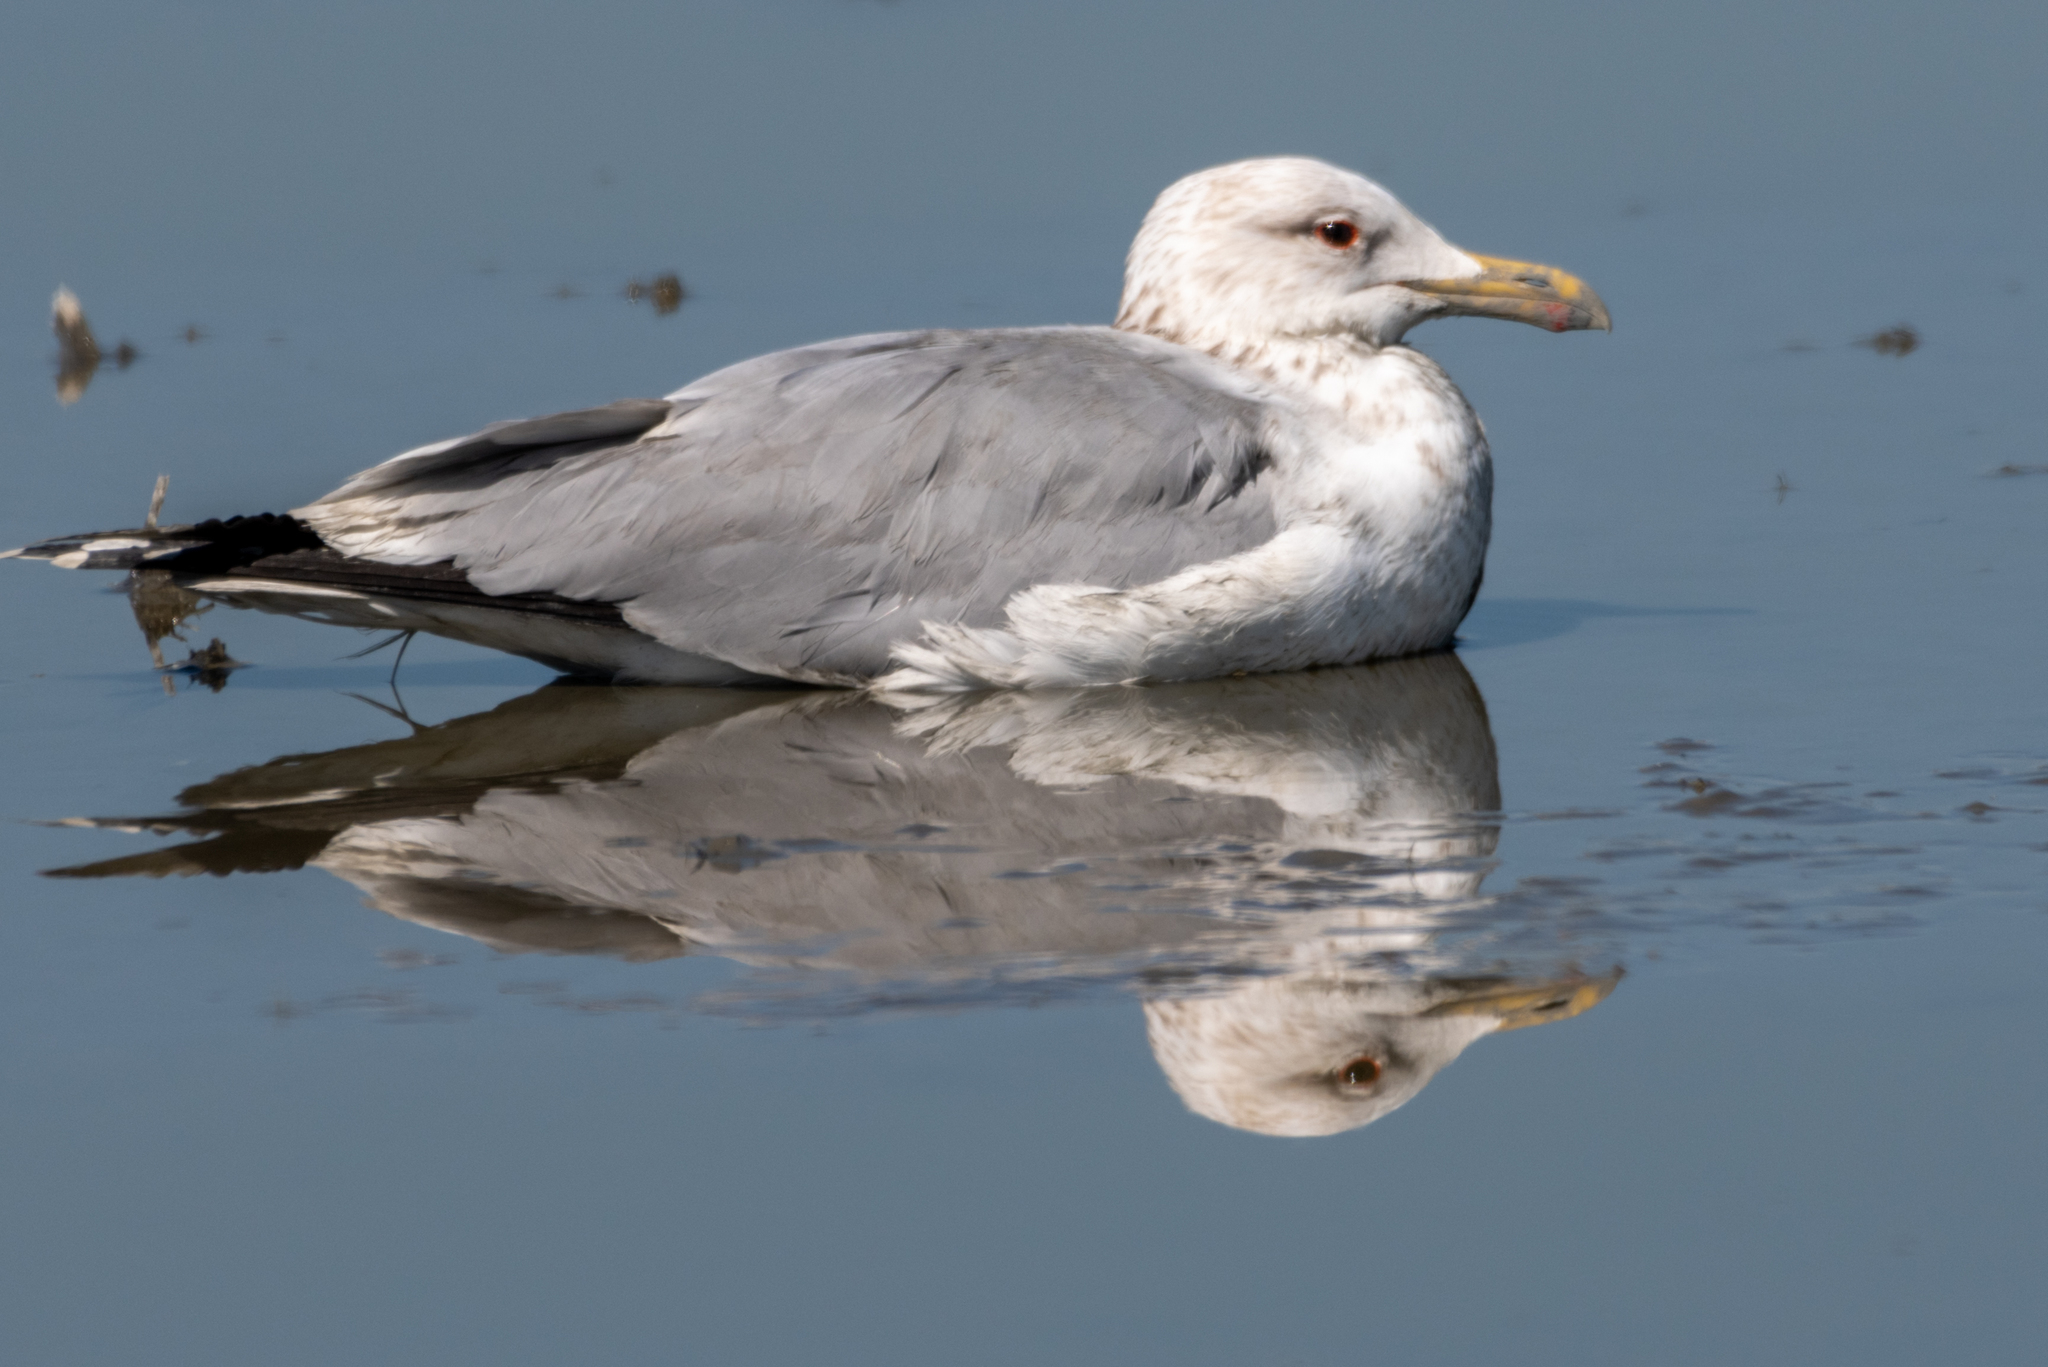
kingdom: Animalia
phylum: Chordata
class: Aves
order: Charadriiformes
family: Laridae
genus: Larus
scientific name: Larus californicus
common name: California gull
